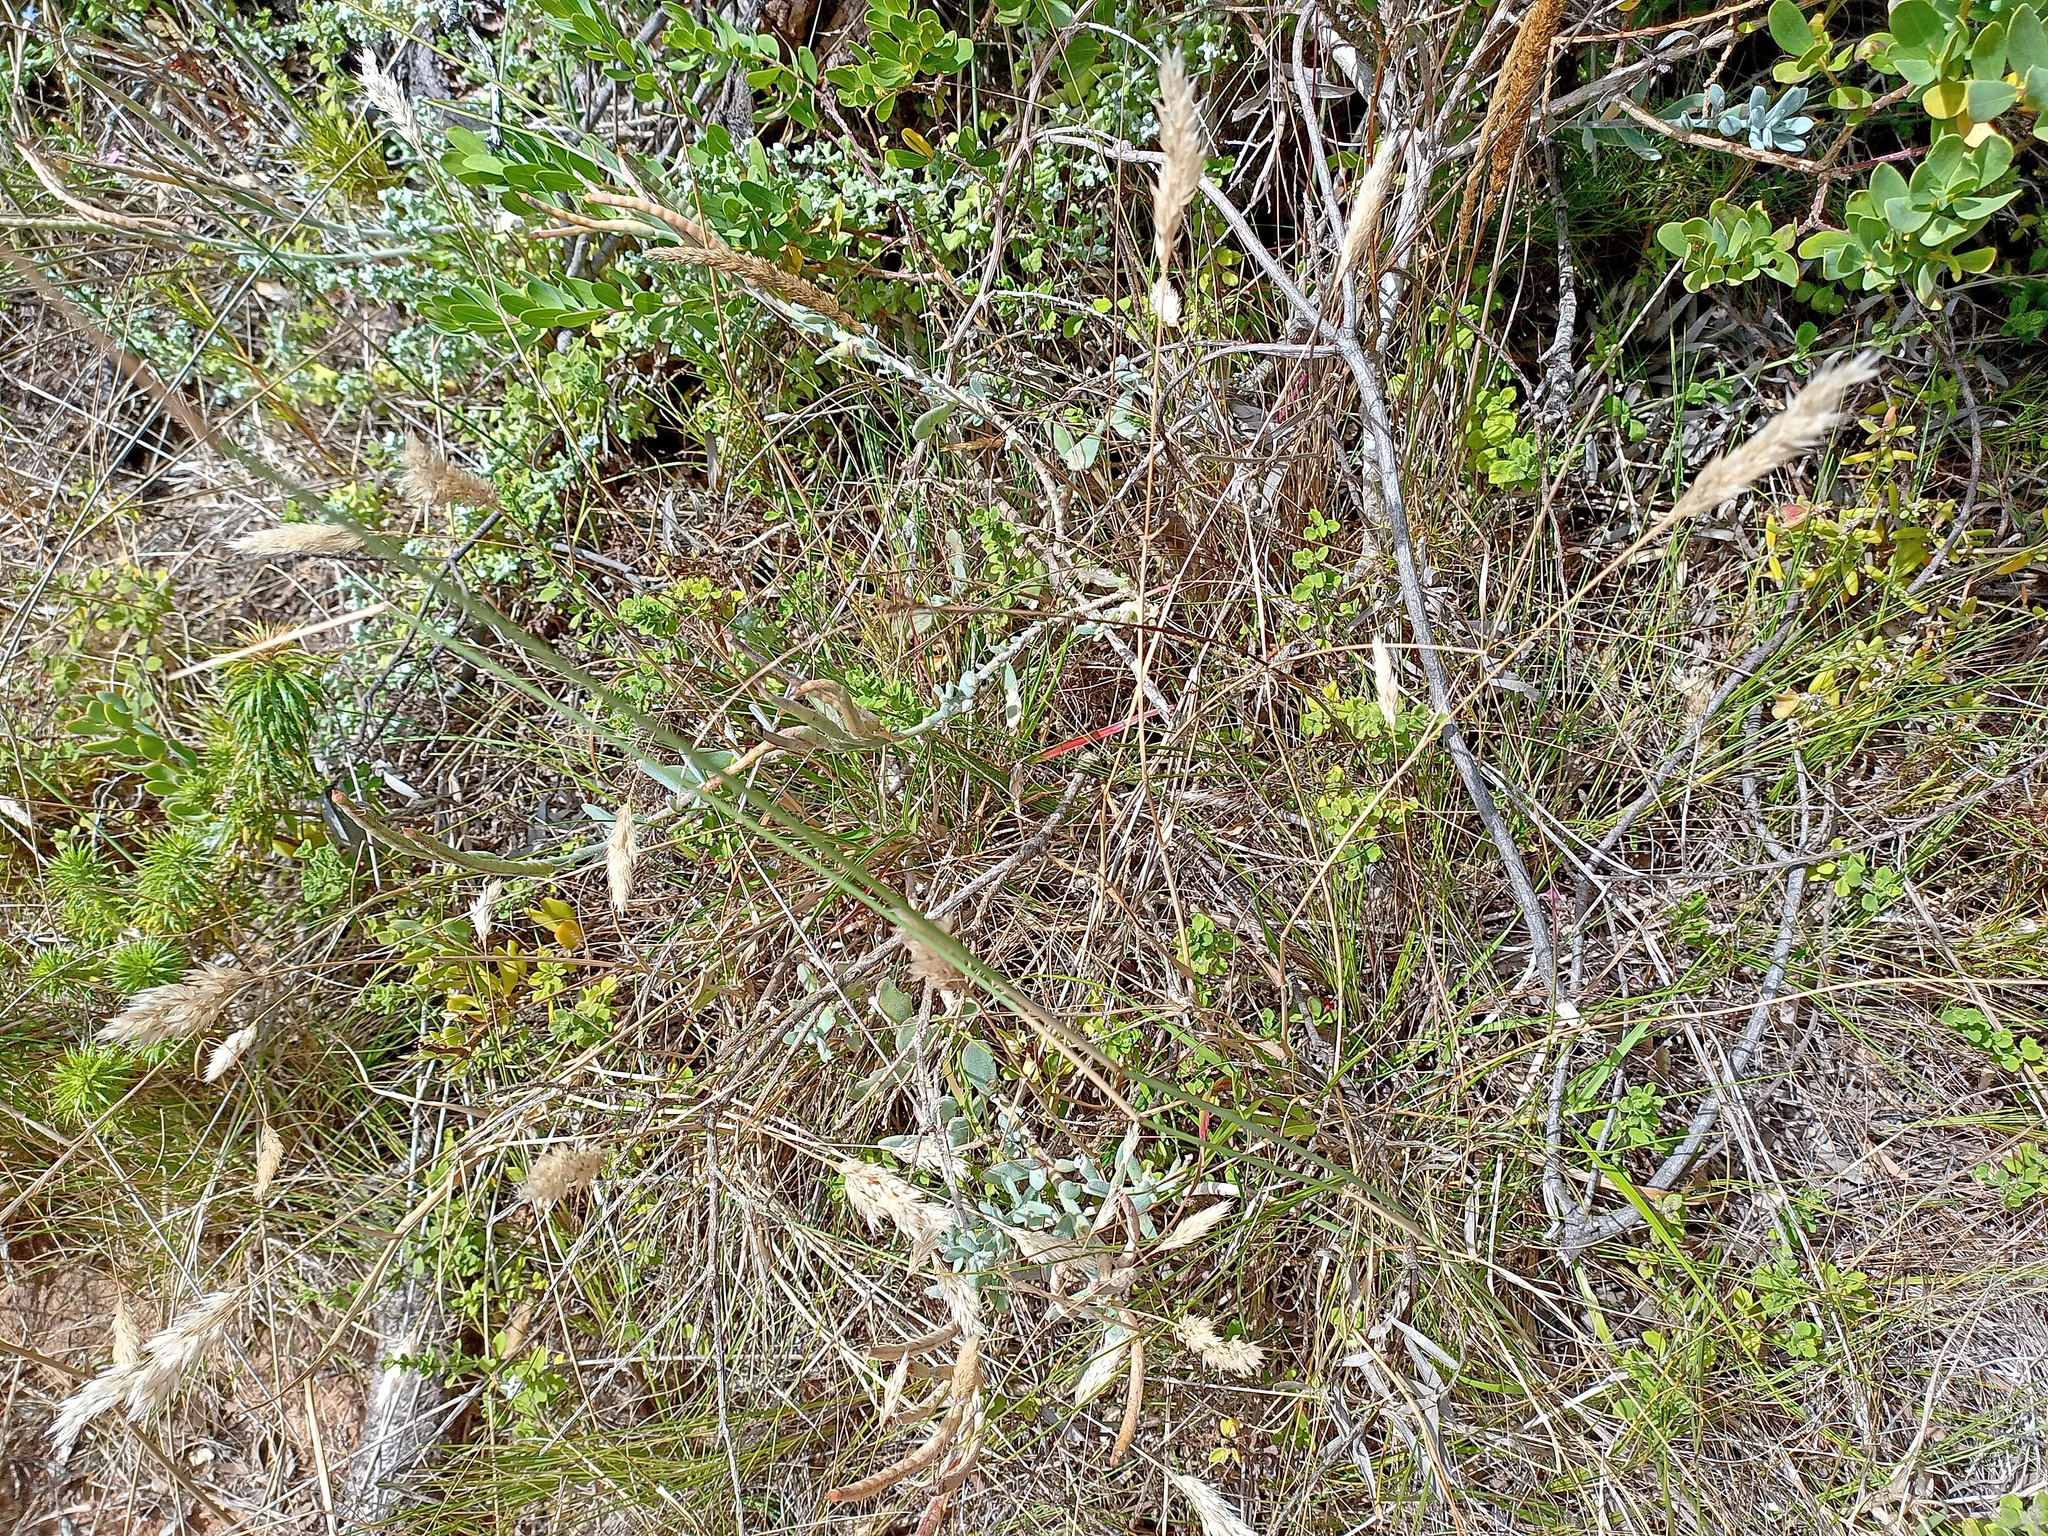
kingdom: Plantae
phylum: Tracheophyta
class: Magnoliopsida
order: Brassicales
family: Brassicaceae
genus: Heliophila
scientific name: Heliophila cinerea
